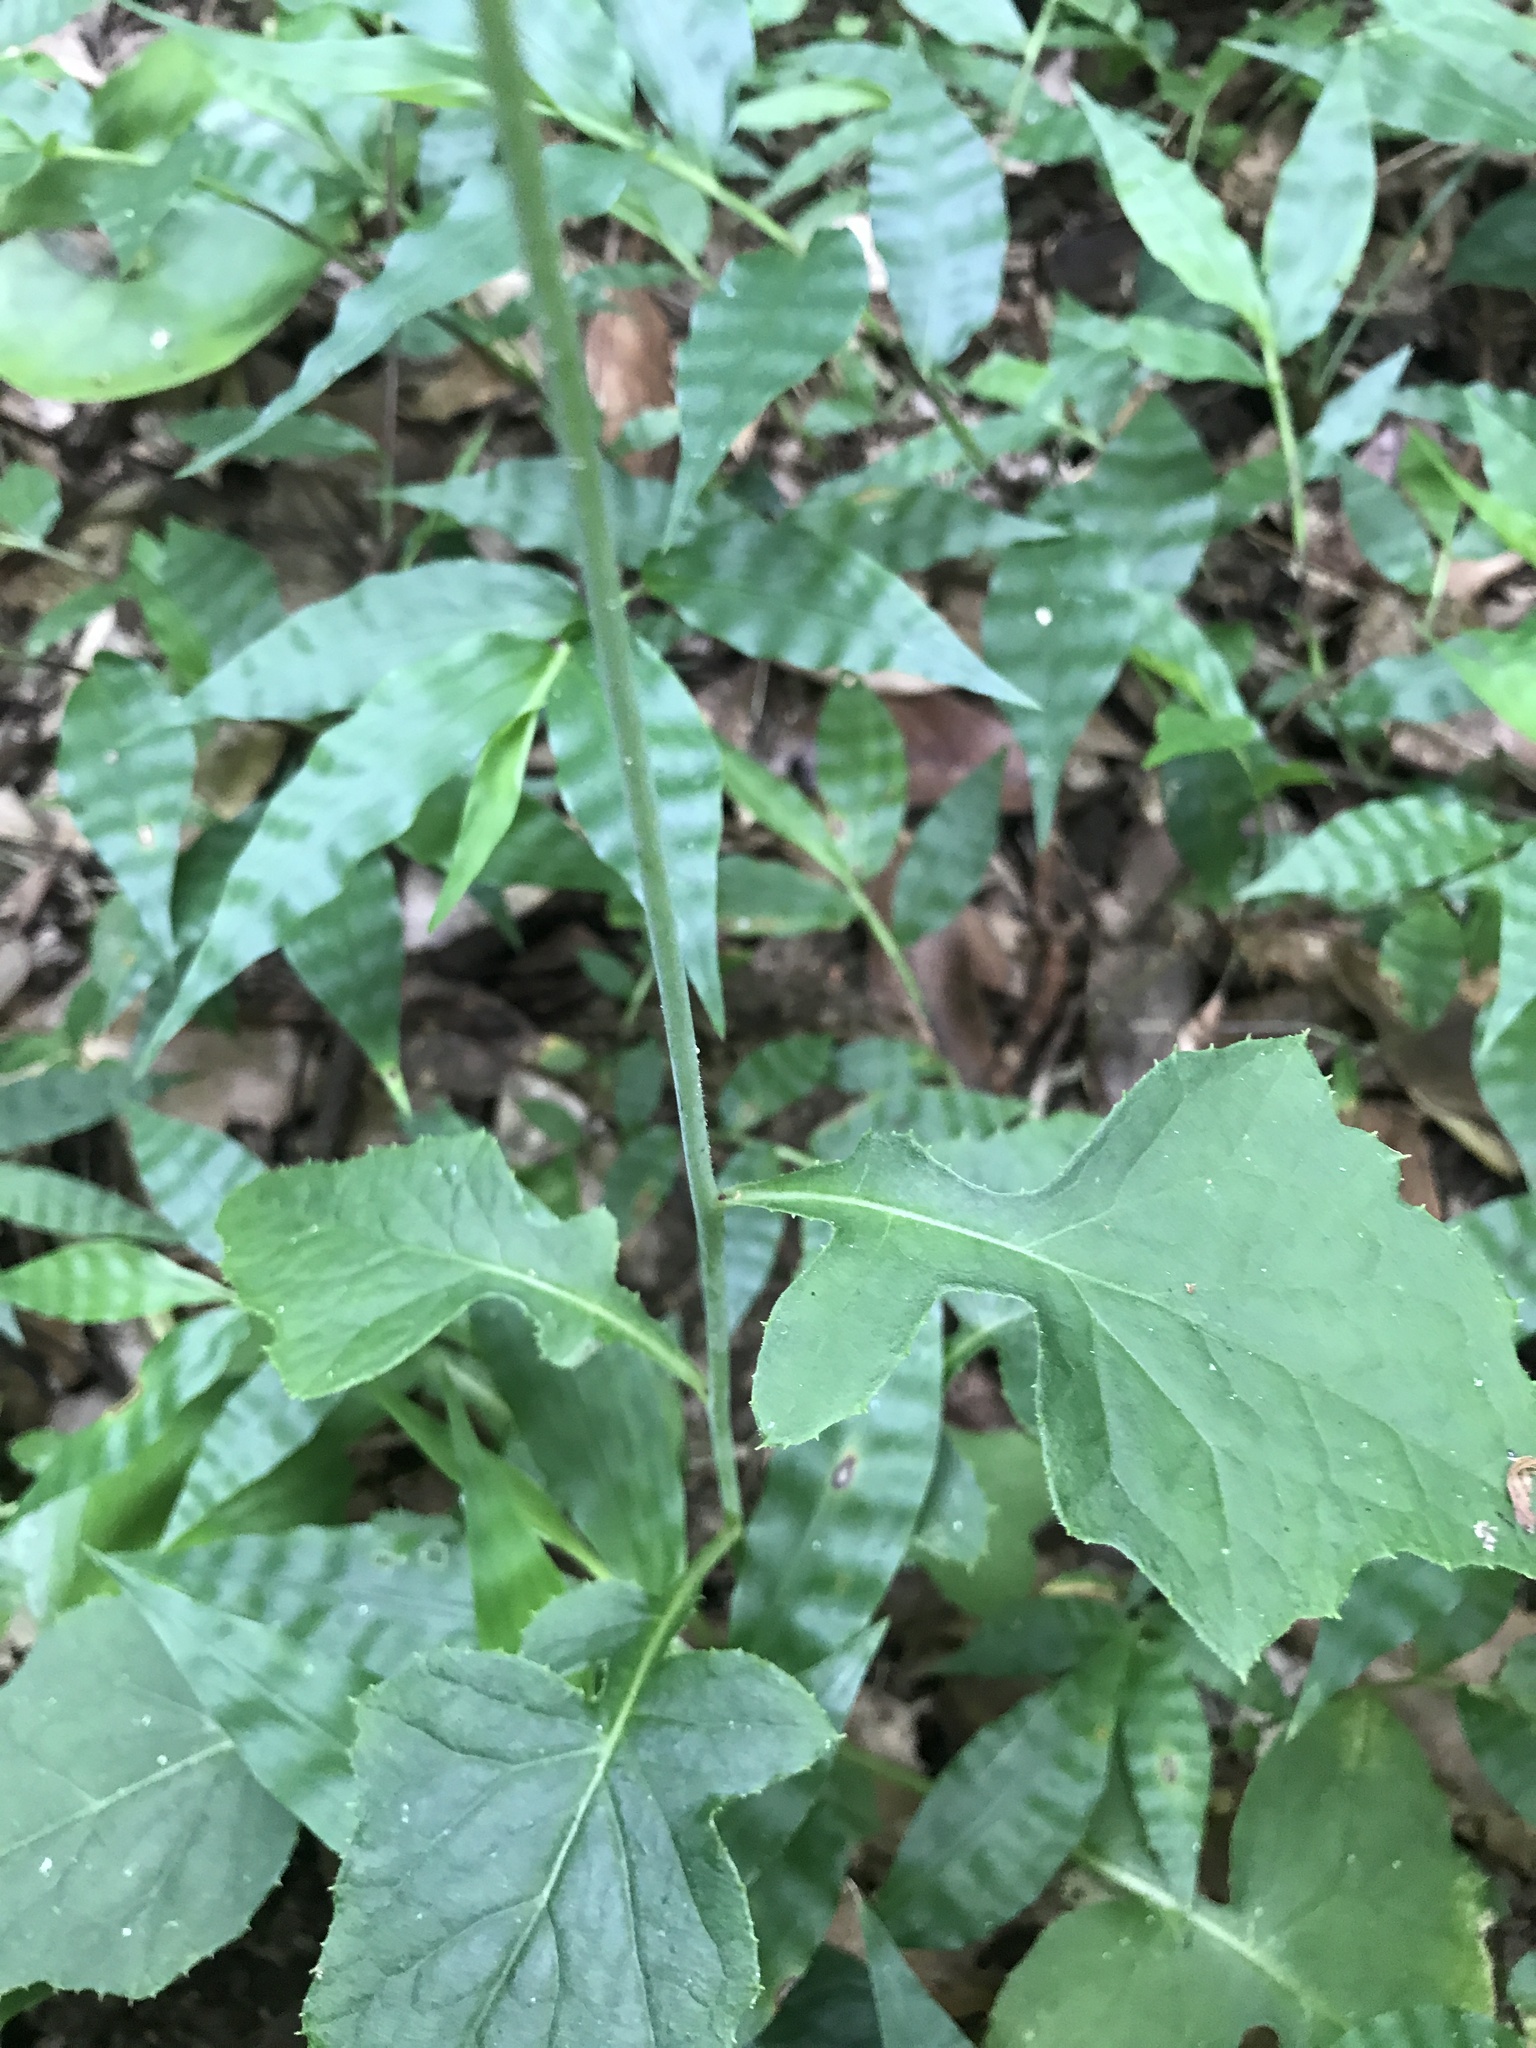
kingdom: Plantae
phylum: Tracheophyta
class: Magnoliopsida
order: Asterales
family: Asteraceae
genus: Paraprenanthes
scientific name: Paraprenanthes sororia
